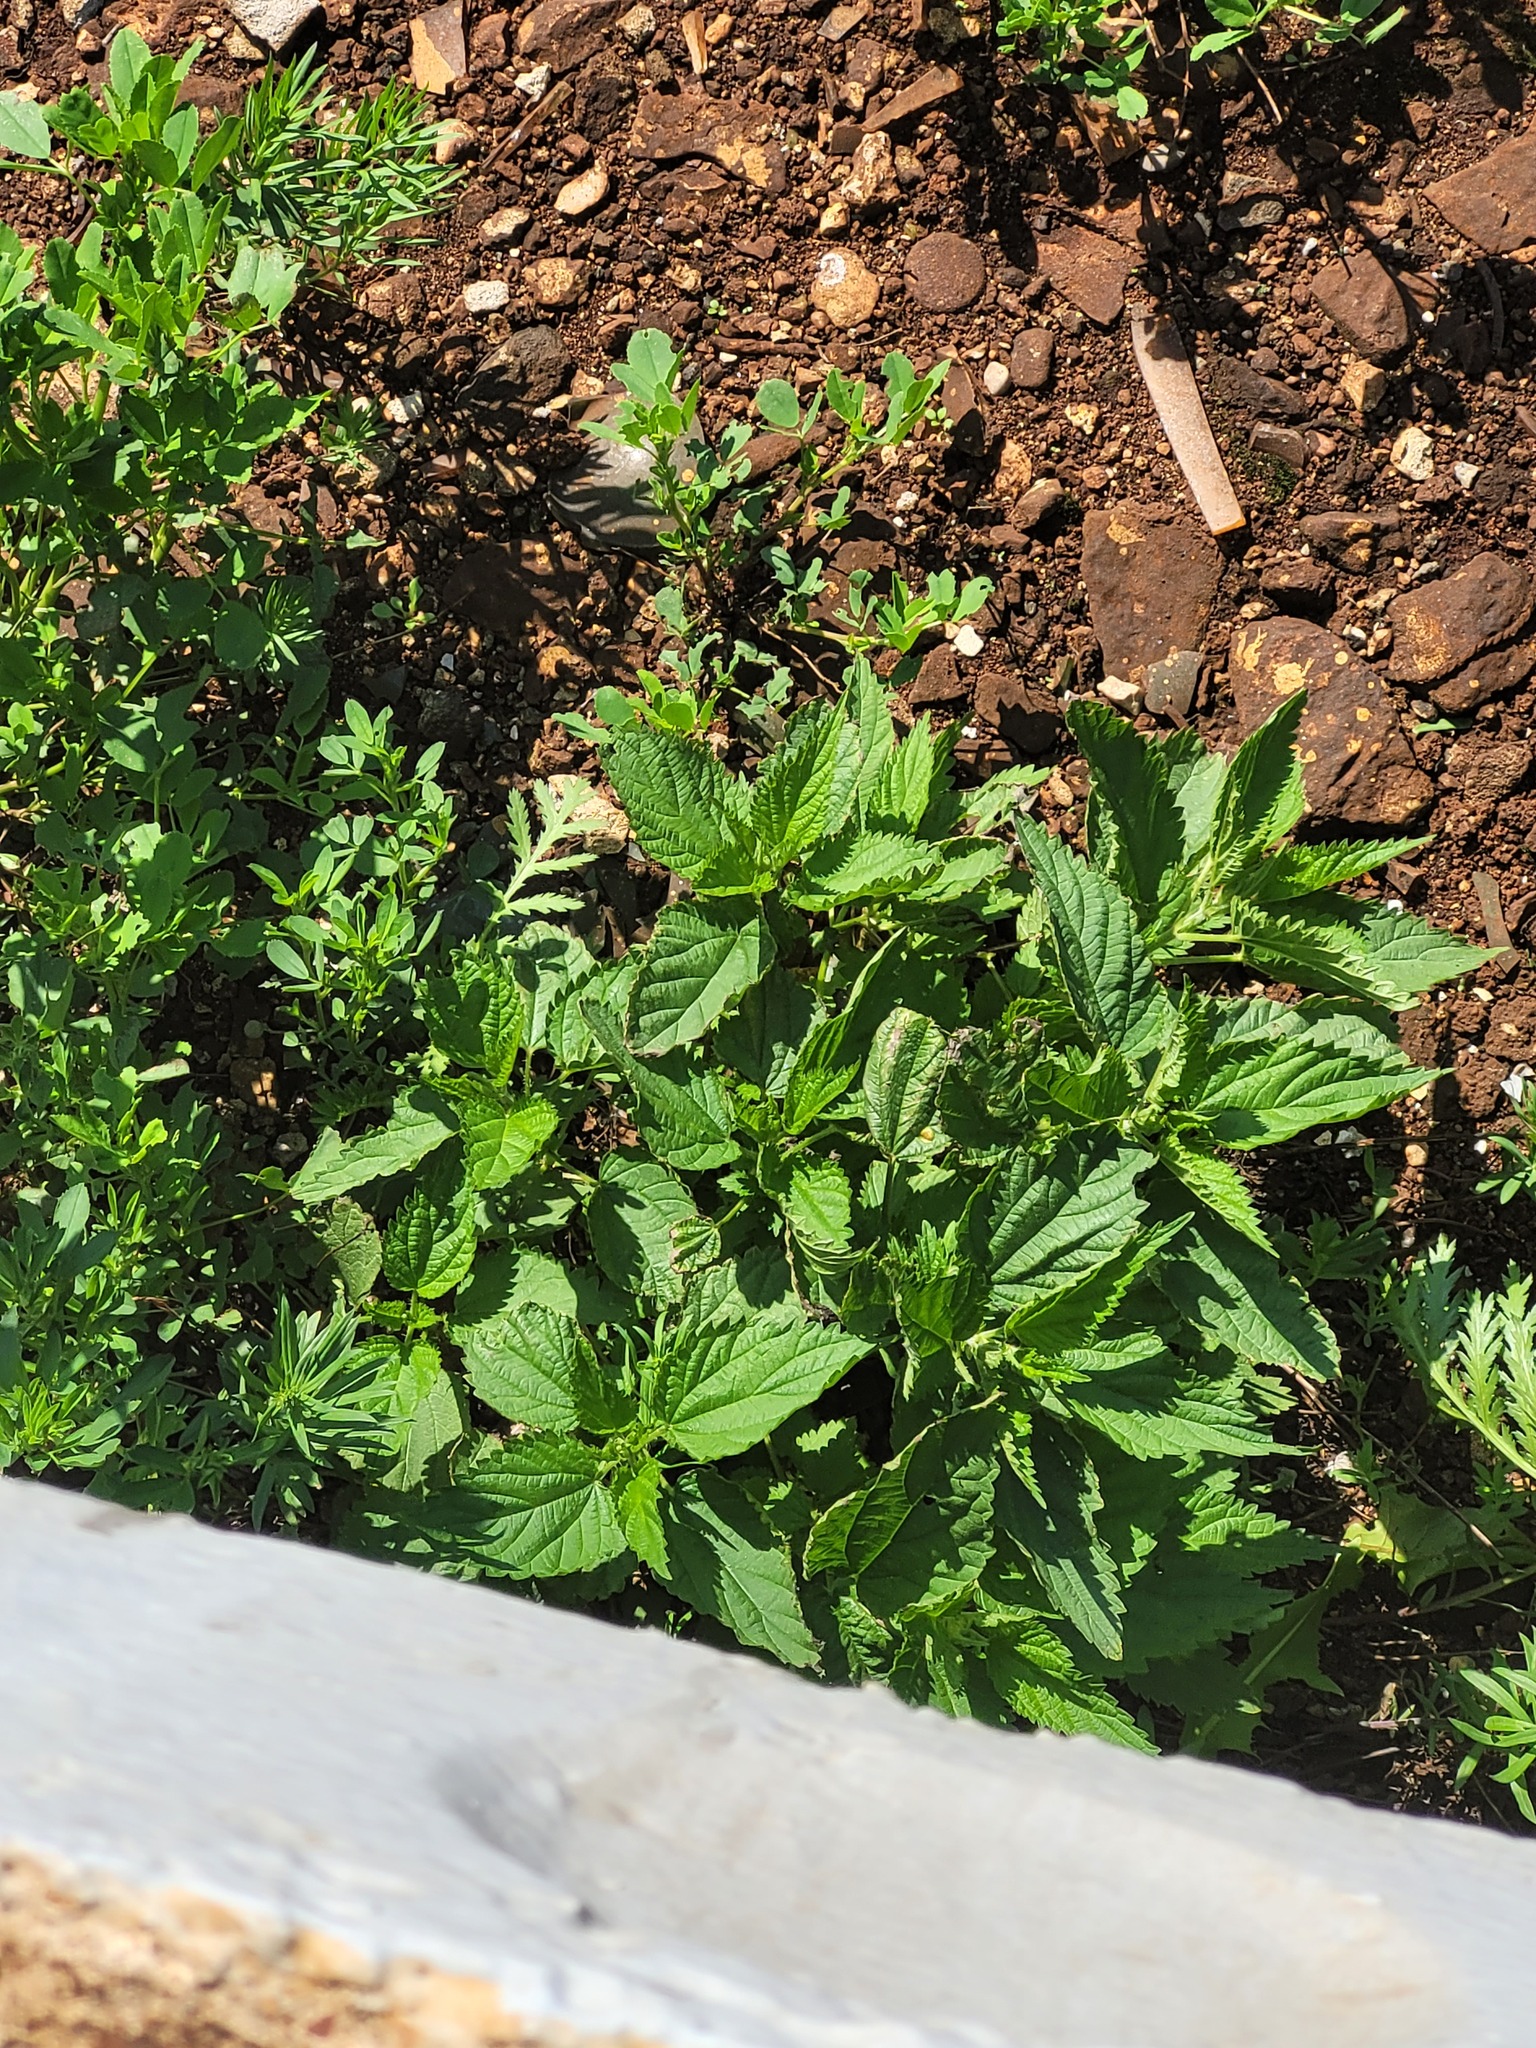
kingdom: Plantae
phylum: Tracheophyta
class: Magnoliopsida
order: Rosales
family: Urticaceae
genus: Urtica
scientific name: Urtica dioica
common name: Common nettle
